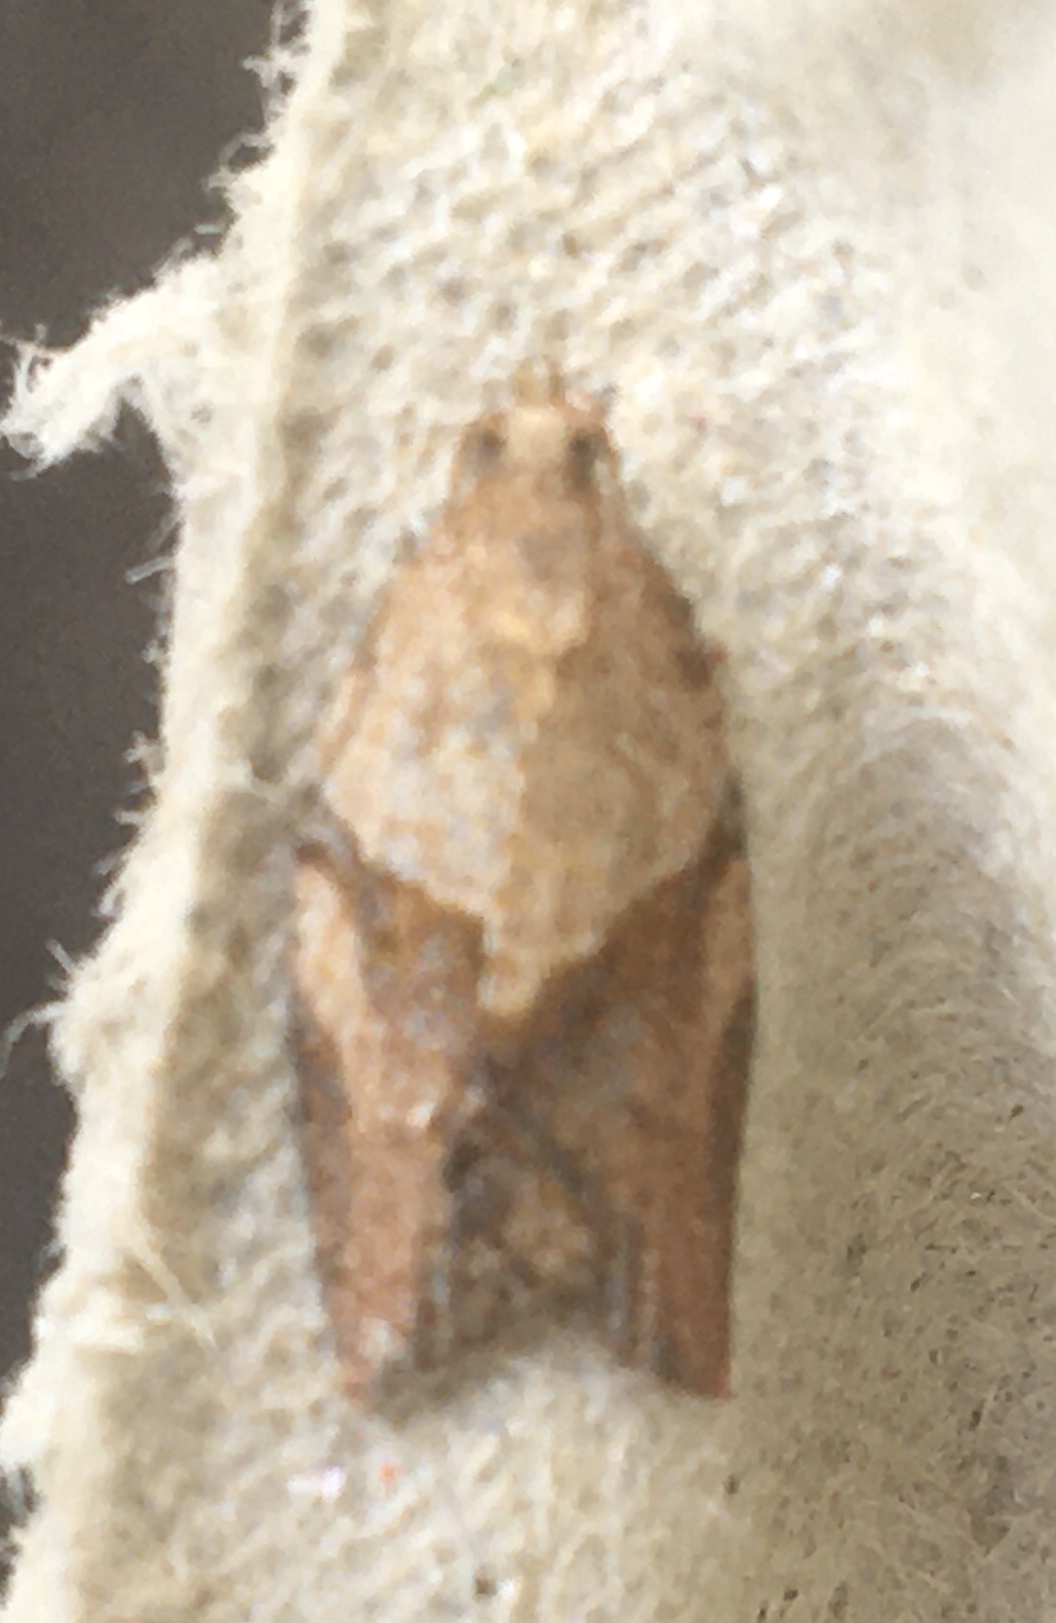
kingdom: Animalia
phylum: Arthropoda
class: Insecta
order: Lepidoptera
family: Tortricidae
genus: Epiphyas
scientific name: Epiphyas postvittana
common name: Light brown apple moth
